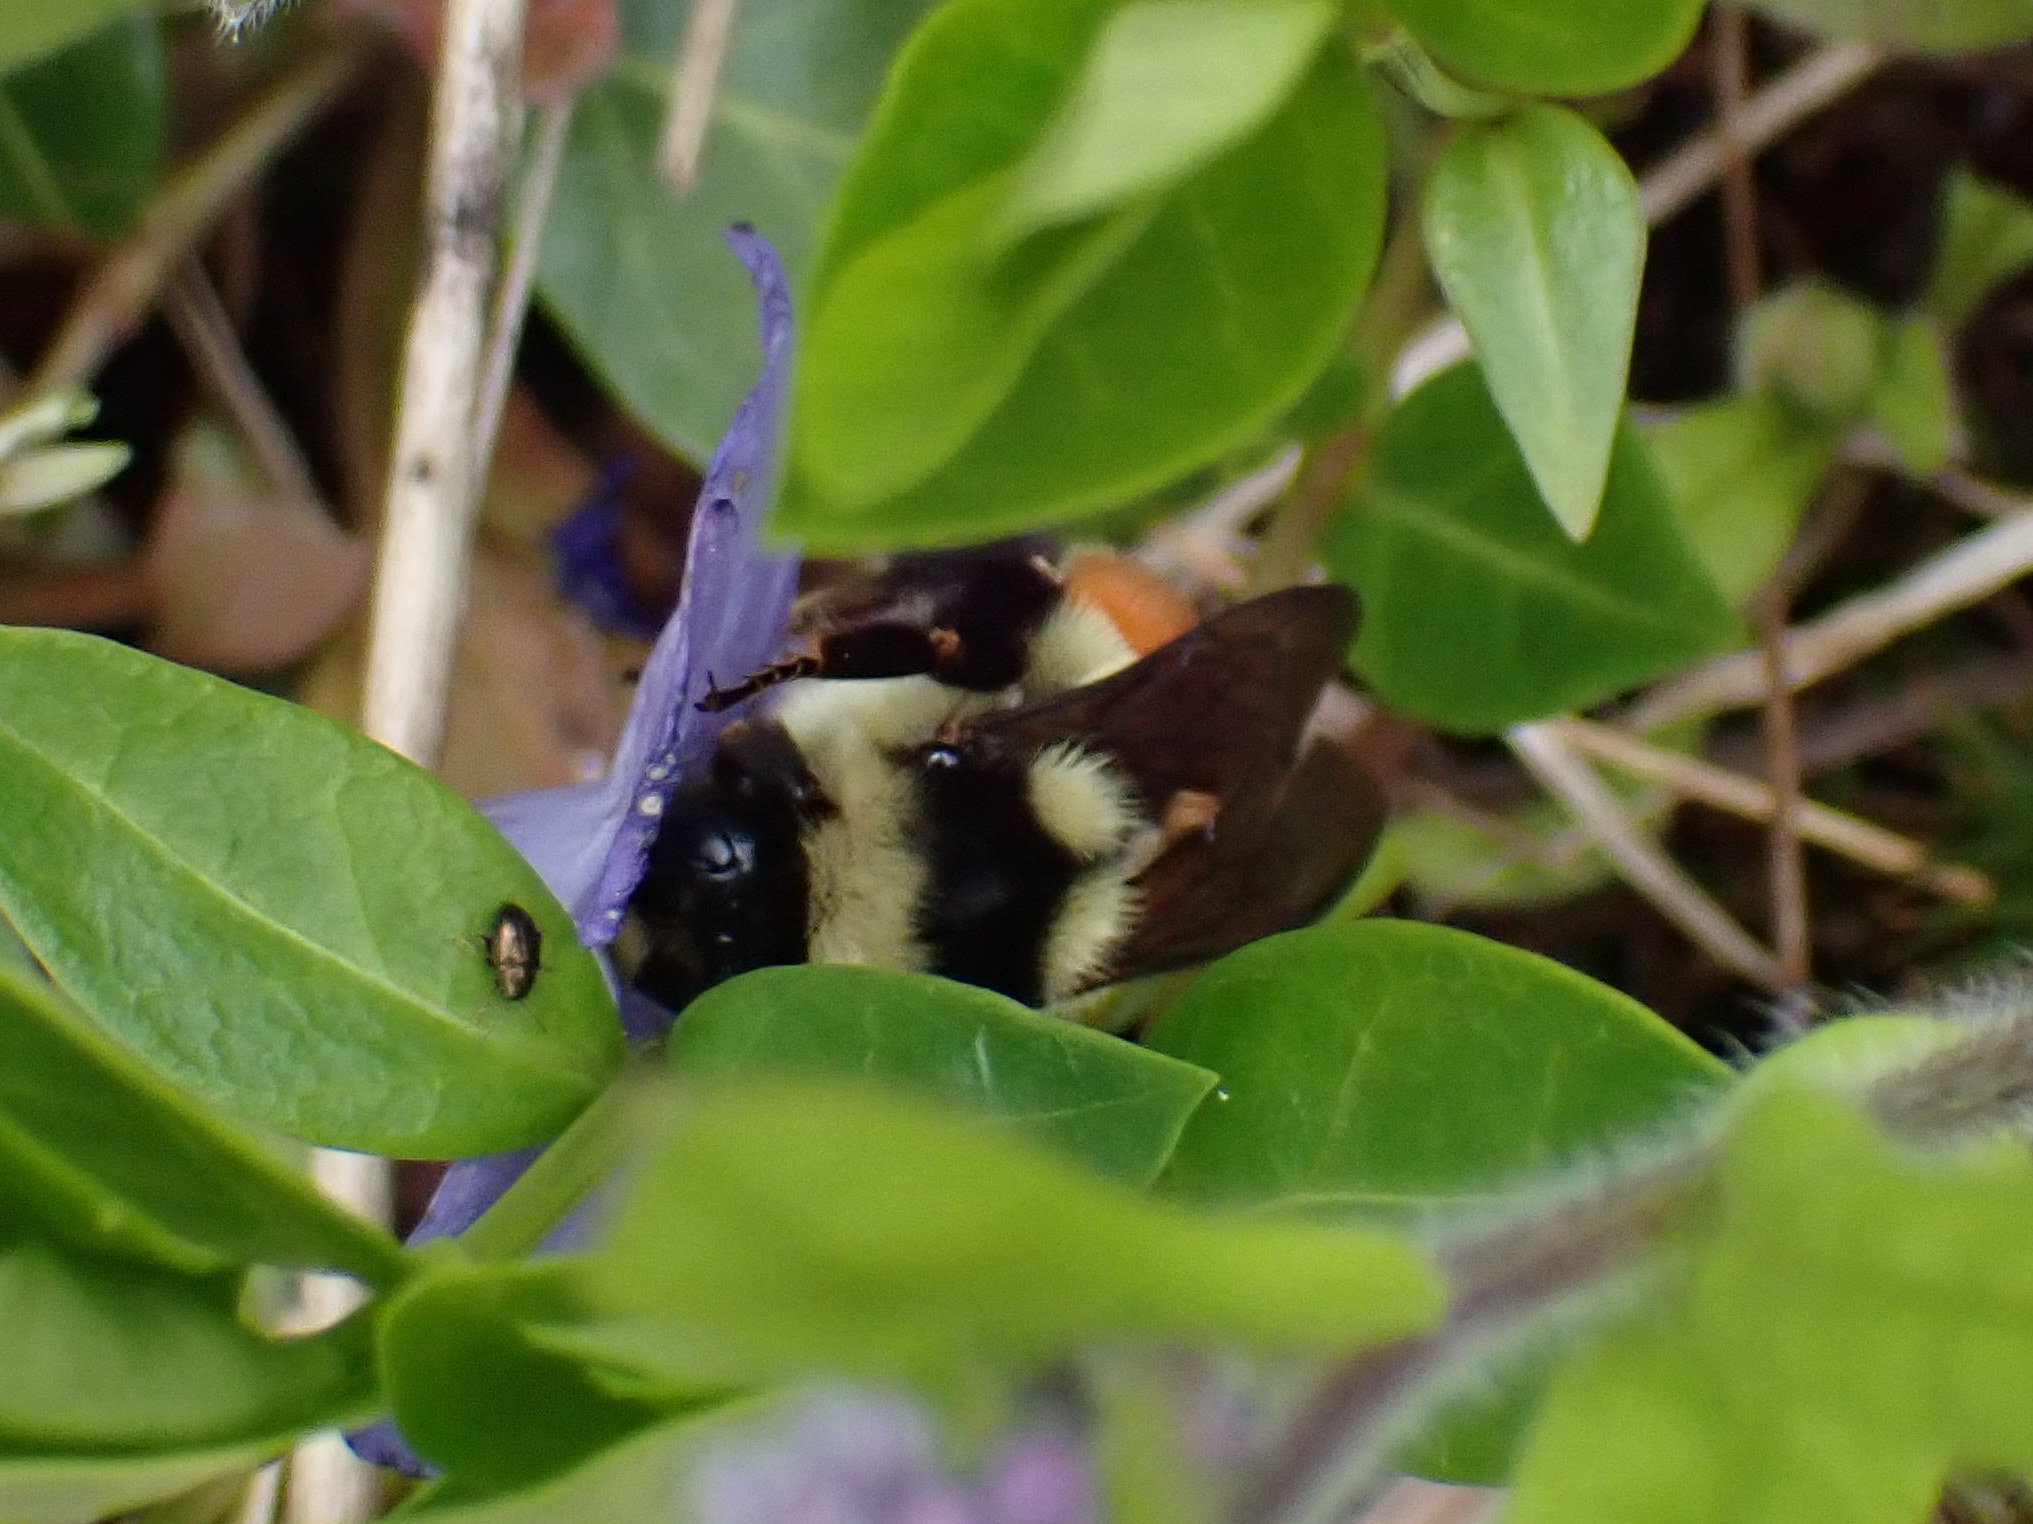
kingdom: Animalia
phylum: Arthropoda
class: Insecta
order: Hymenoptera
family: Apidae
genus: Bombus
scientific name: Bombus ternarius
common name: Tri-colored bumble bee
